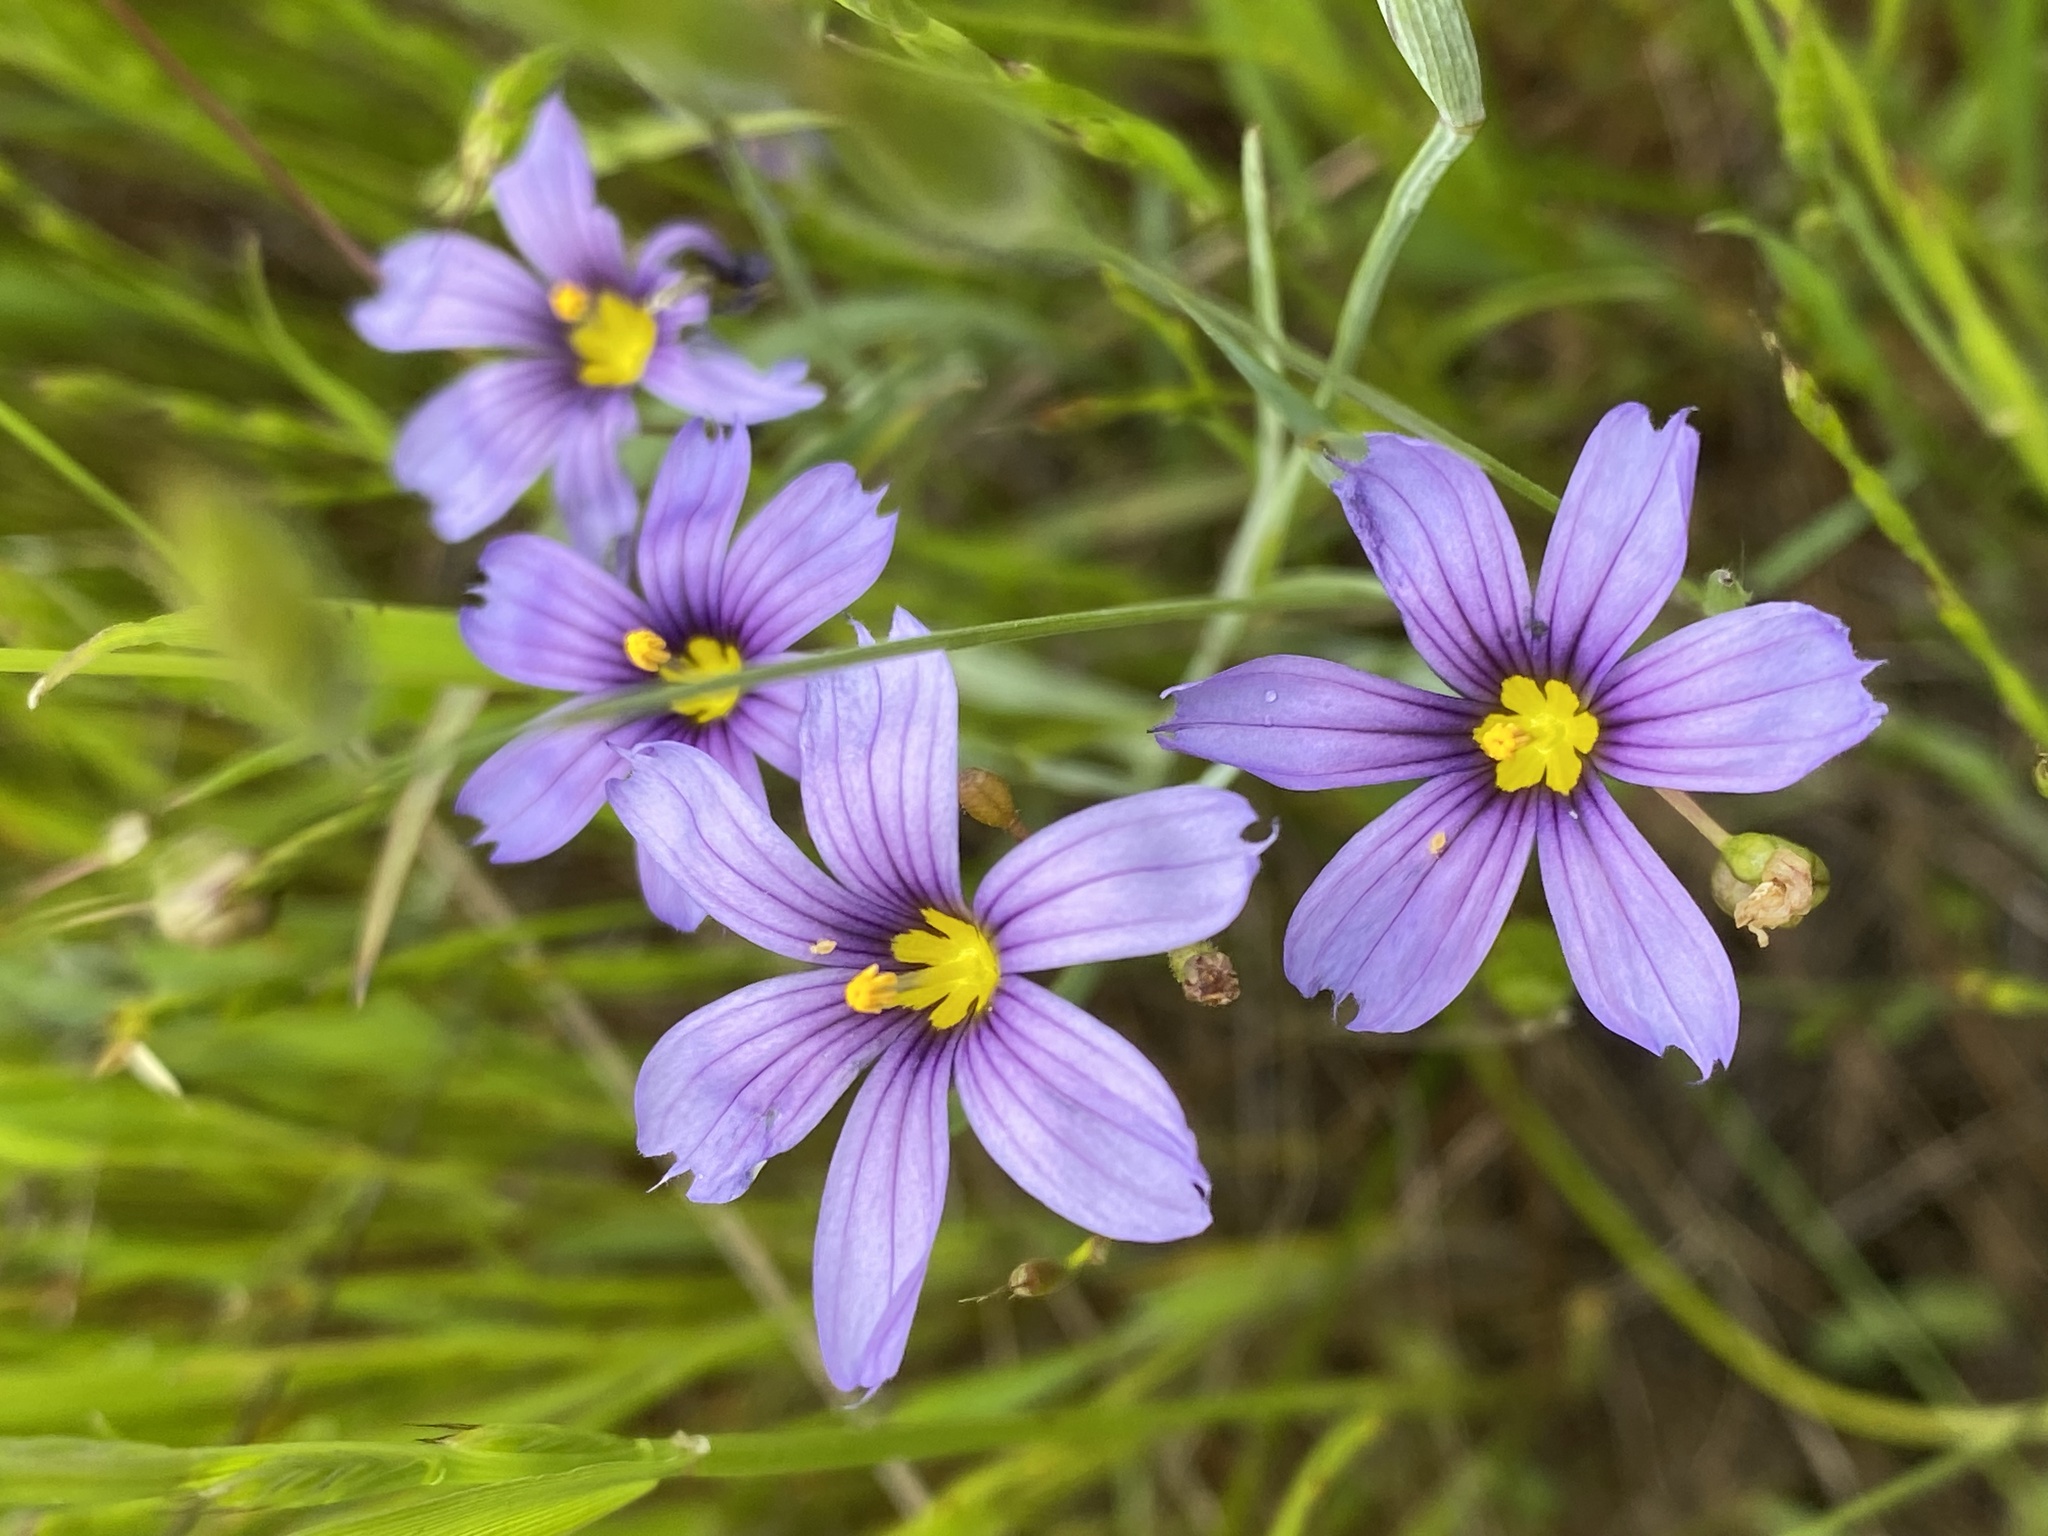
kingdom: Plantae
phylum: Tracheophyta
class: Liliopsida
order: Asparagales
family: Iridaceae
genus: Sisyrinchium
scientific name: Sisyrinchium bellum
